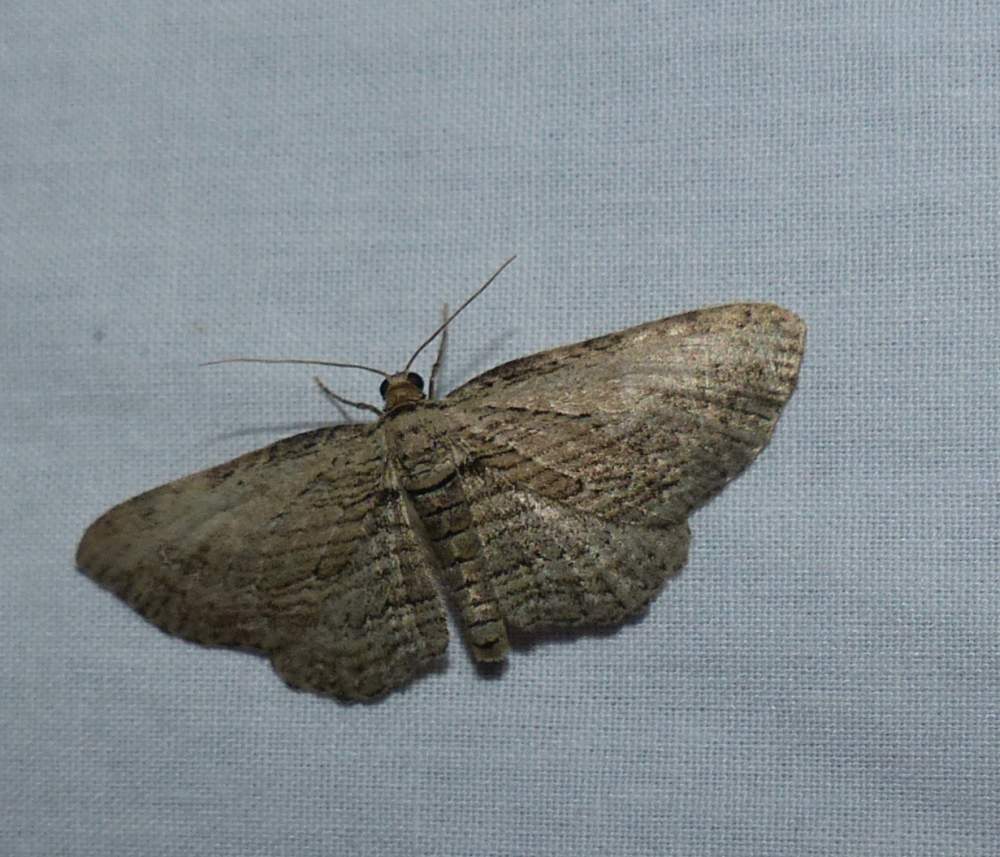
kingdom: Animalia
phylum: Arthropoda
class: Insecta
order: Lepidoptera
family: Geometridae
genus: Horisme
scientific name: Horisme intestinata
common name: Brown bark carpet
